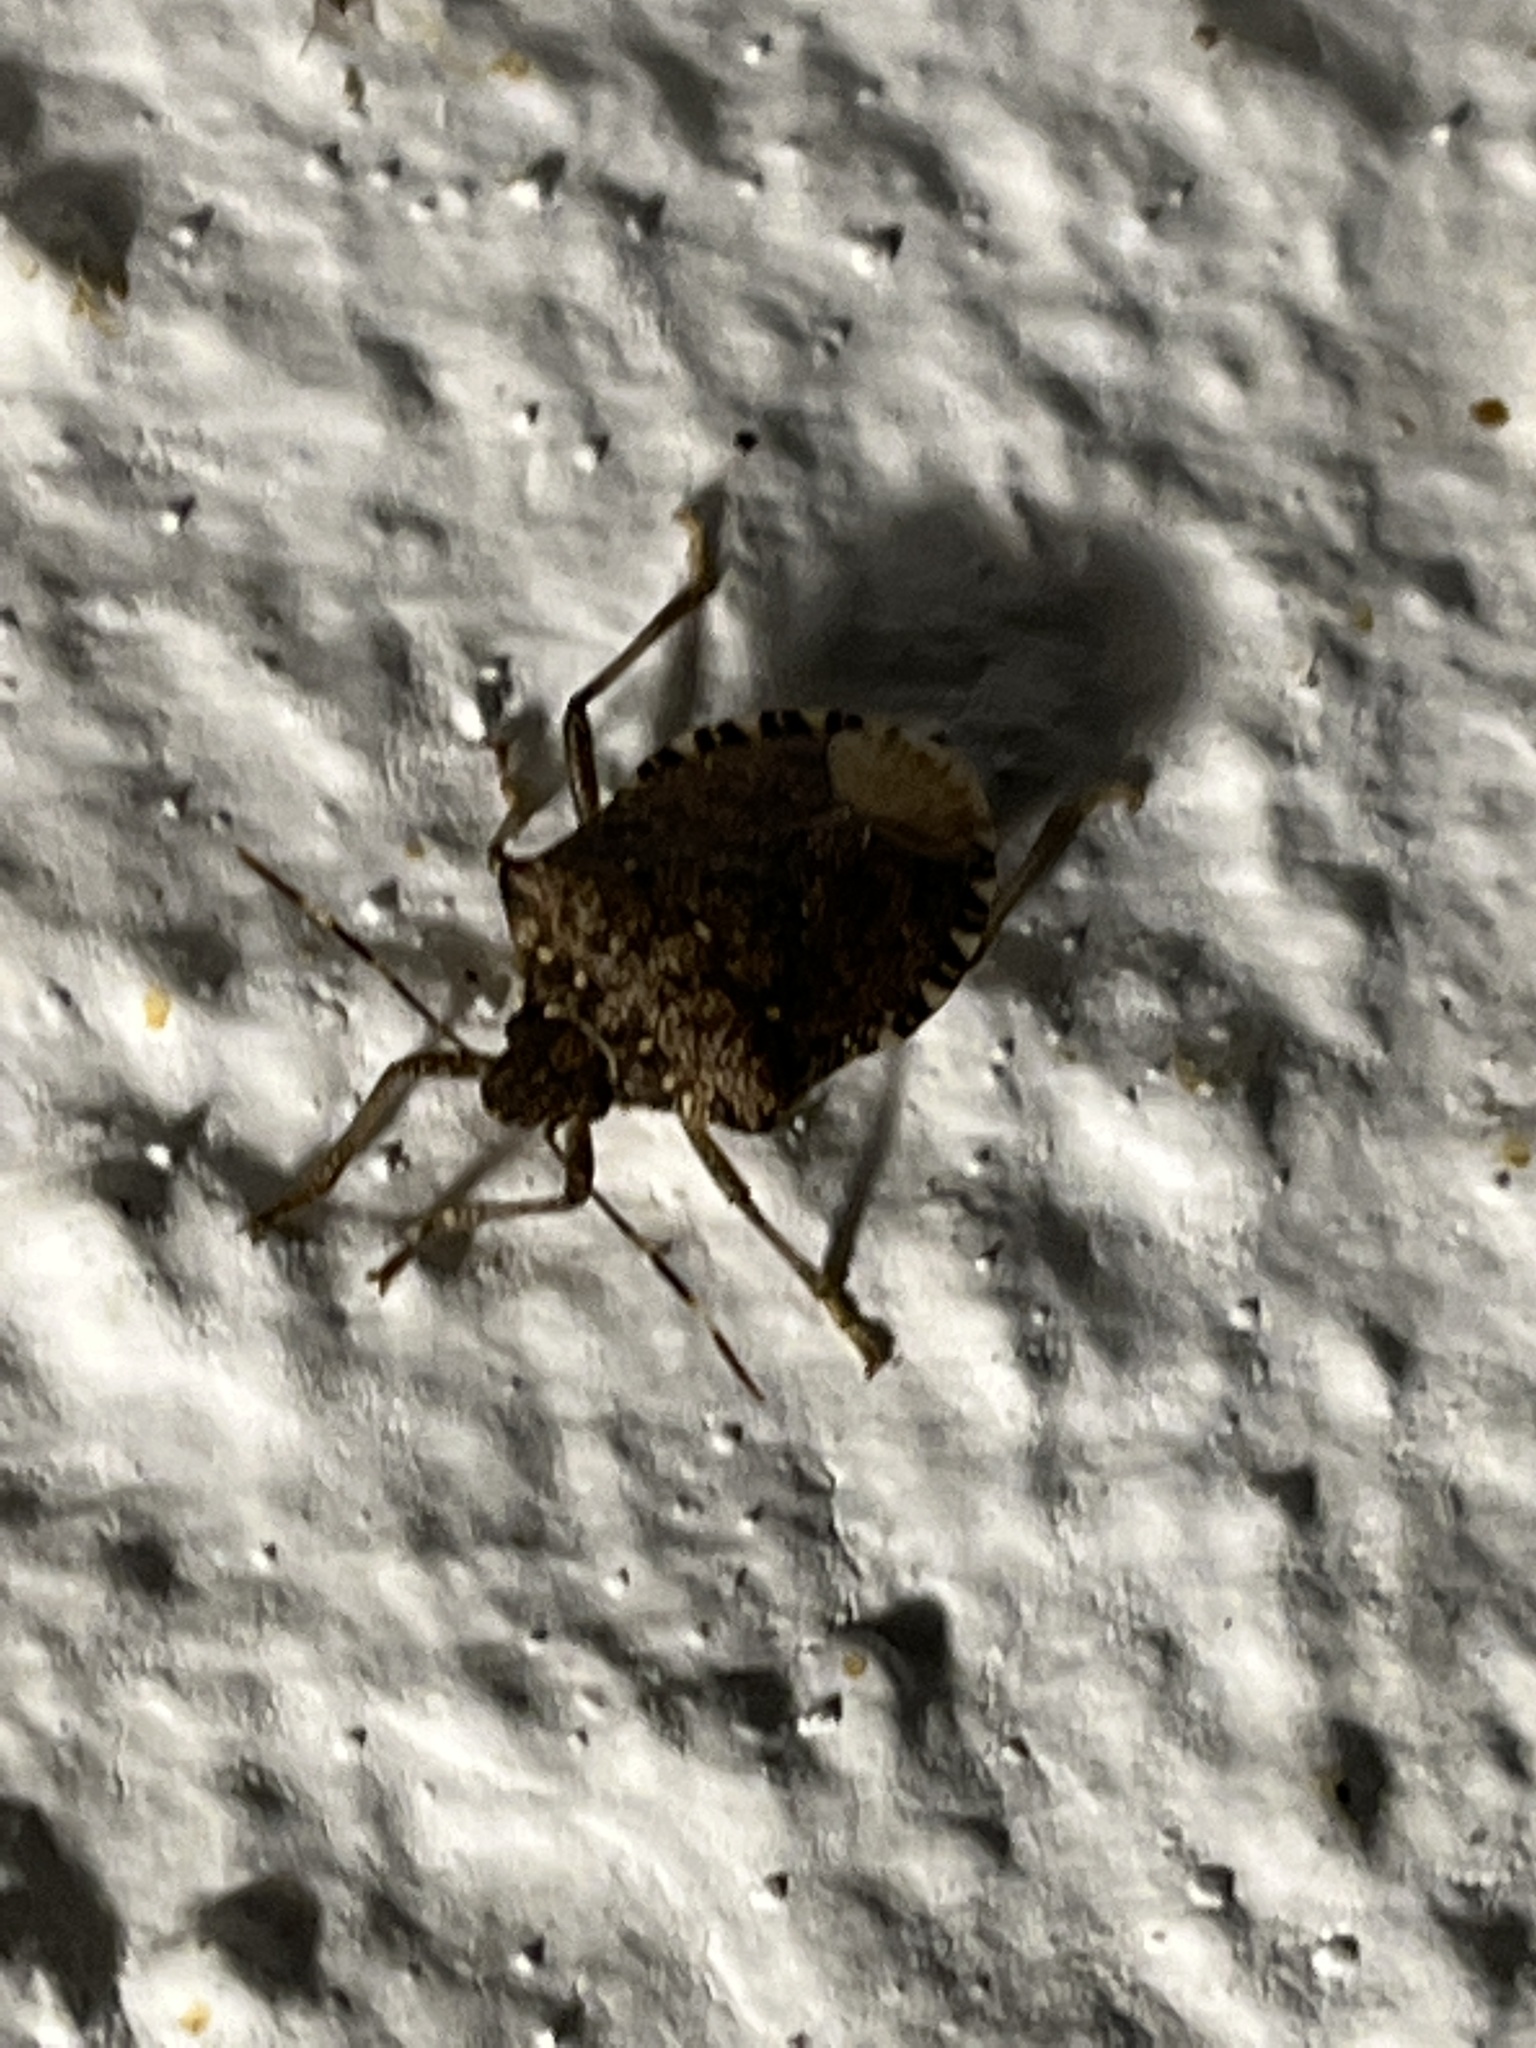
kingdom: Animalia
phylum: Arthropoda
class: Insecta
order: Hemiptera
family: Pentatomidae
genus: Halyomorpha
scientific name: Halyomorpha halys
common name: Brown marmorated stink bug
